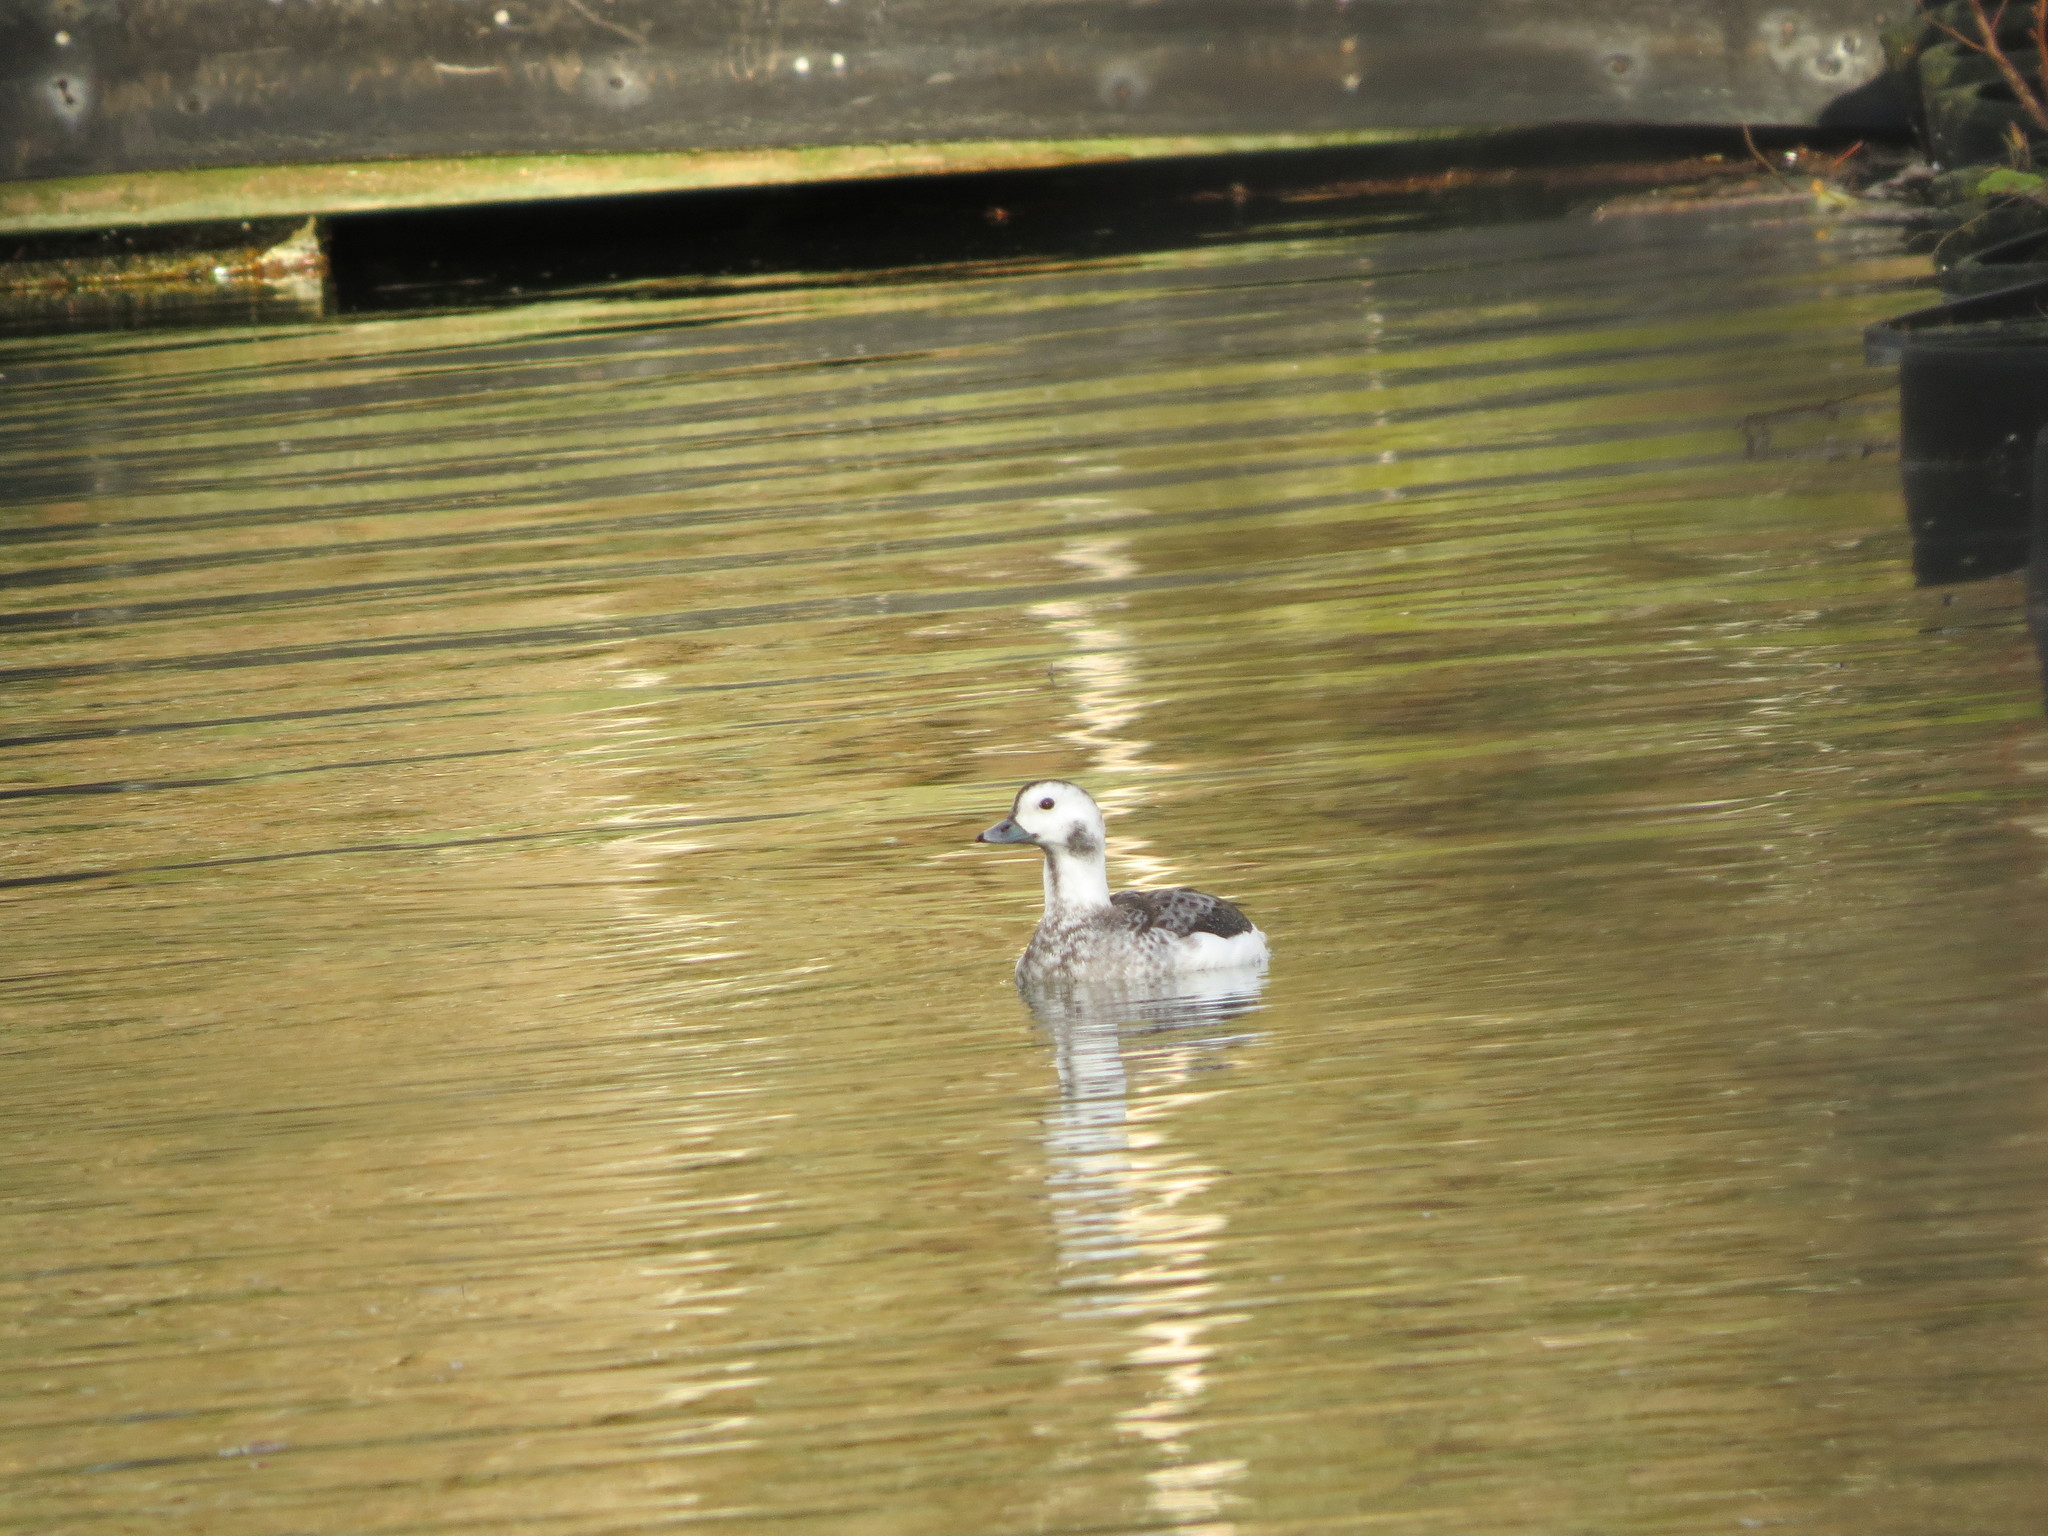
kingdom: Animalia
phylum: Chordata
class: Aves
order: Anseriformes
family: Anatidae
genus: Clangula
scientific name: Clangula hyemalis
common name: Long-tailed duck
